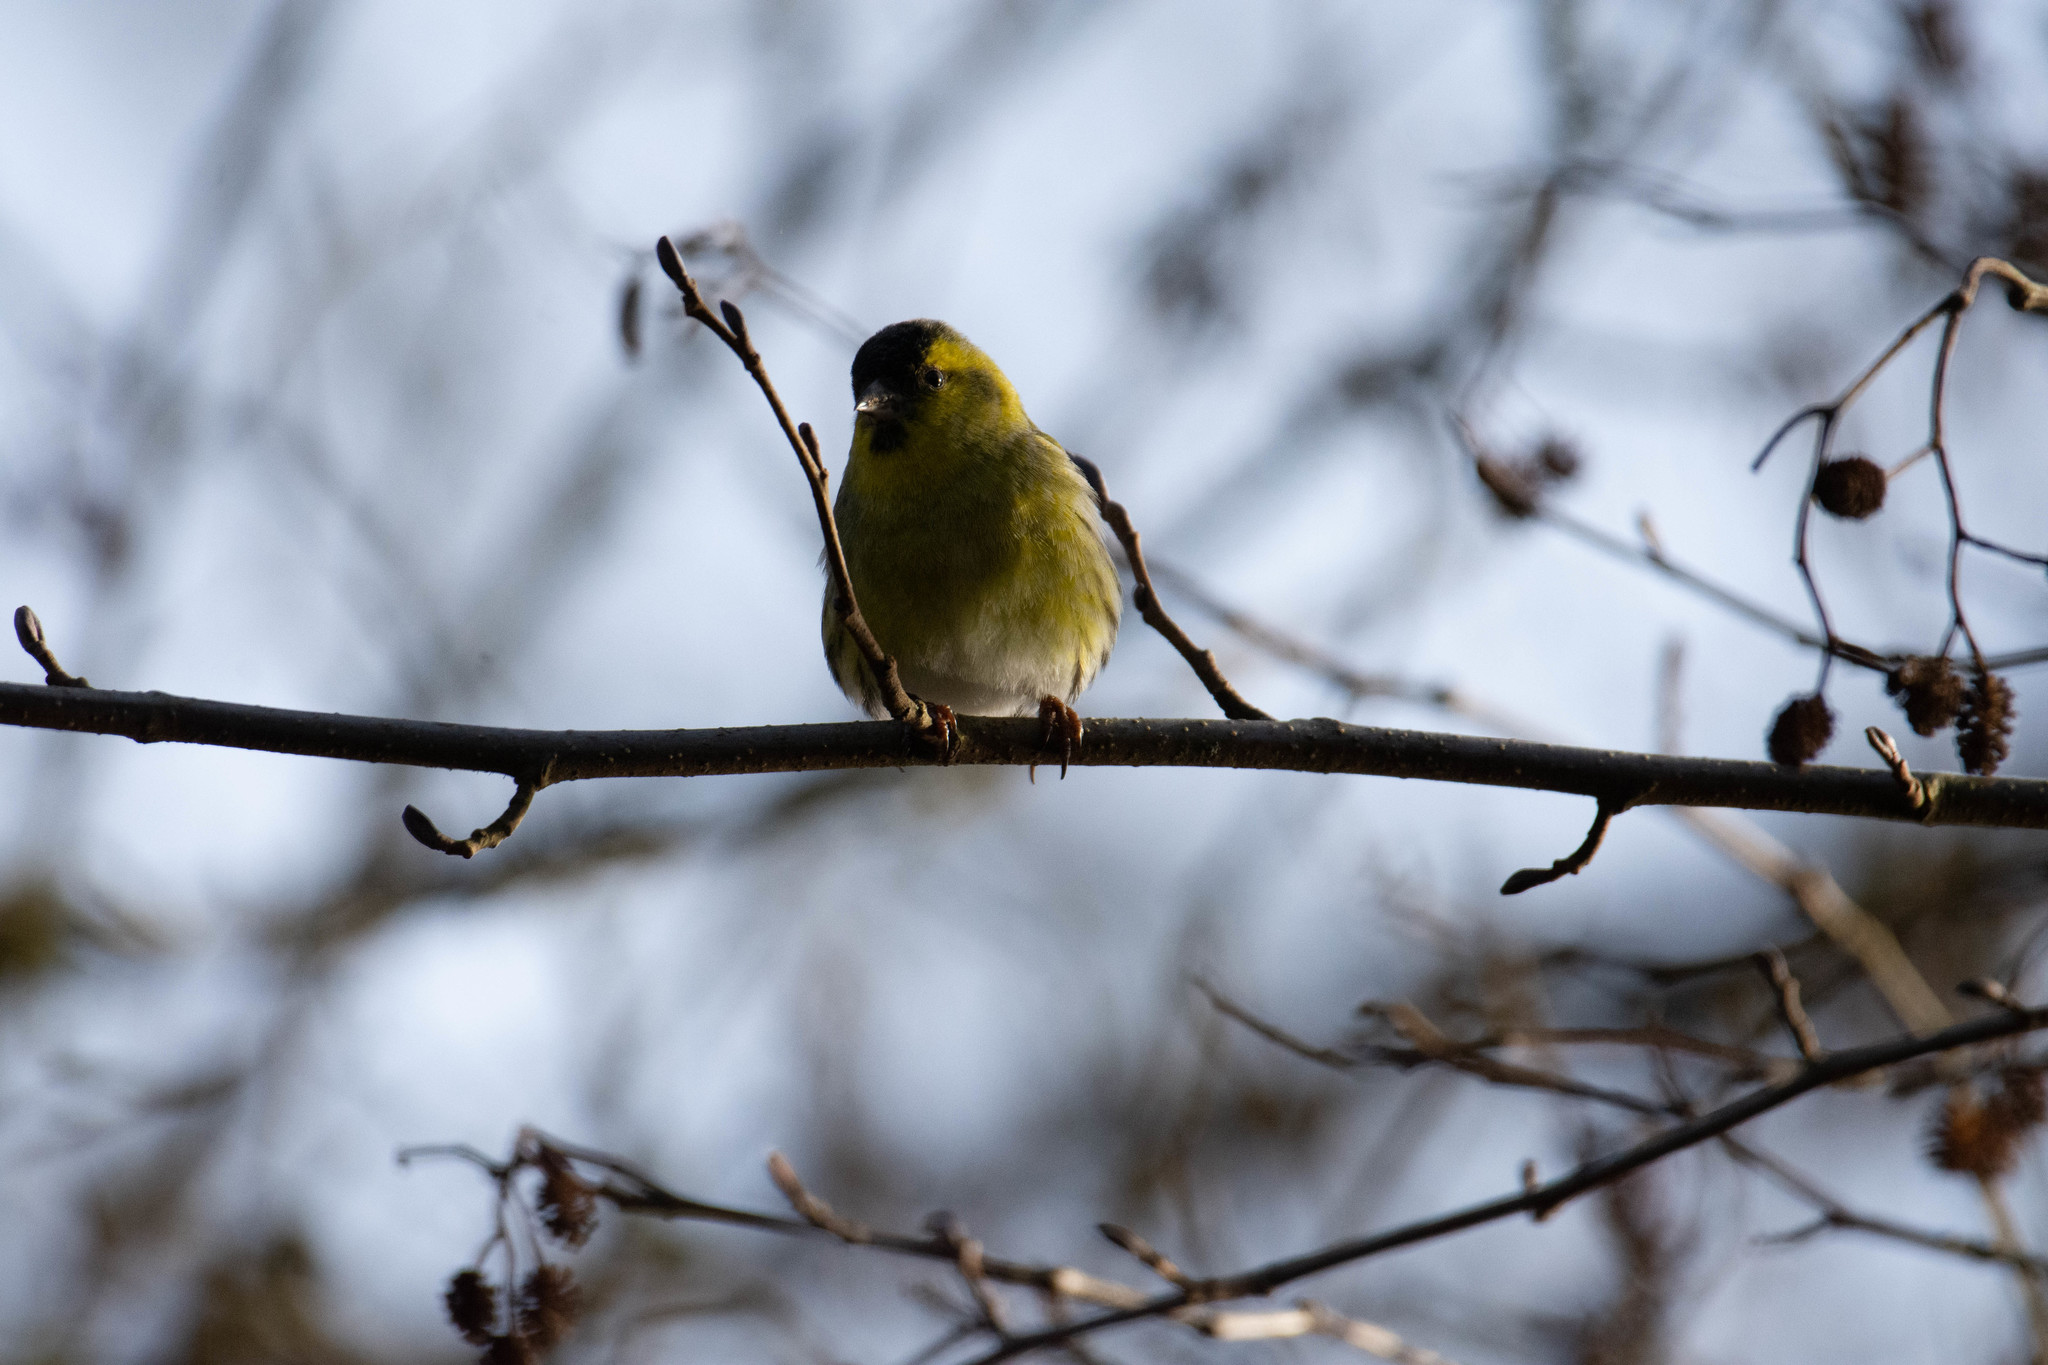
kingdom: Animalia
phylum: Chordata
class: Aves
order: Passeriformes
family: Fringillidae
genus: Spinus
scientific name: Spinus spinus
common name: Eurasian siskin
